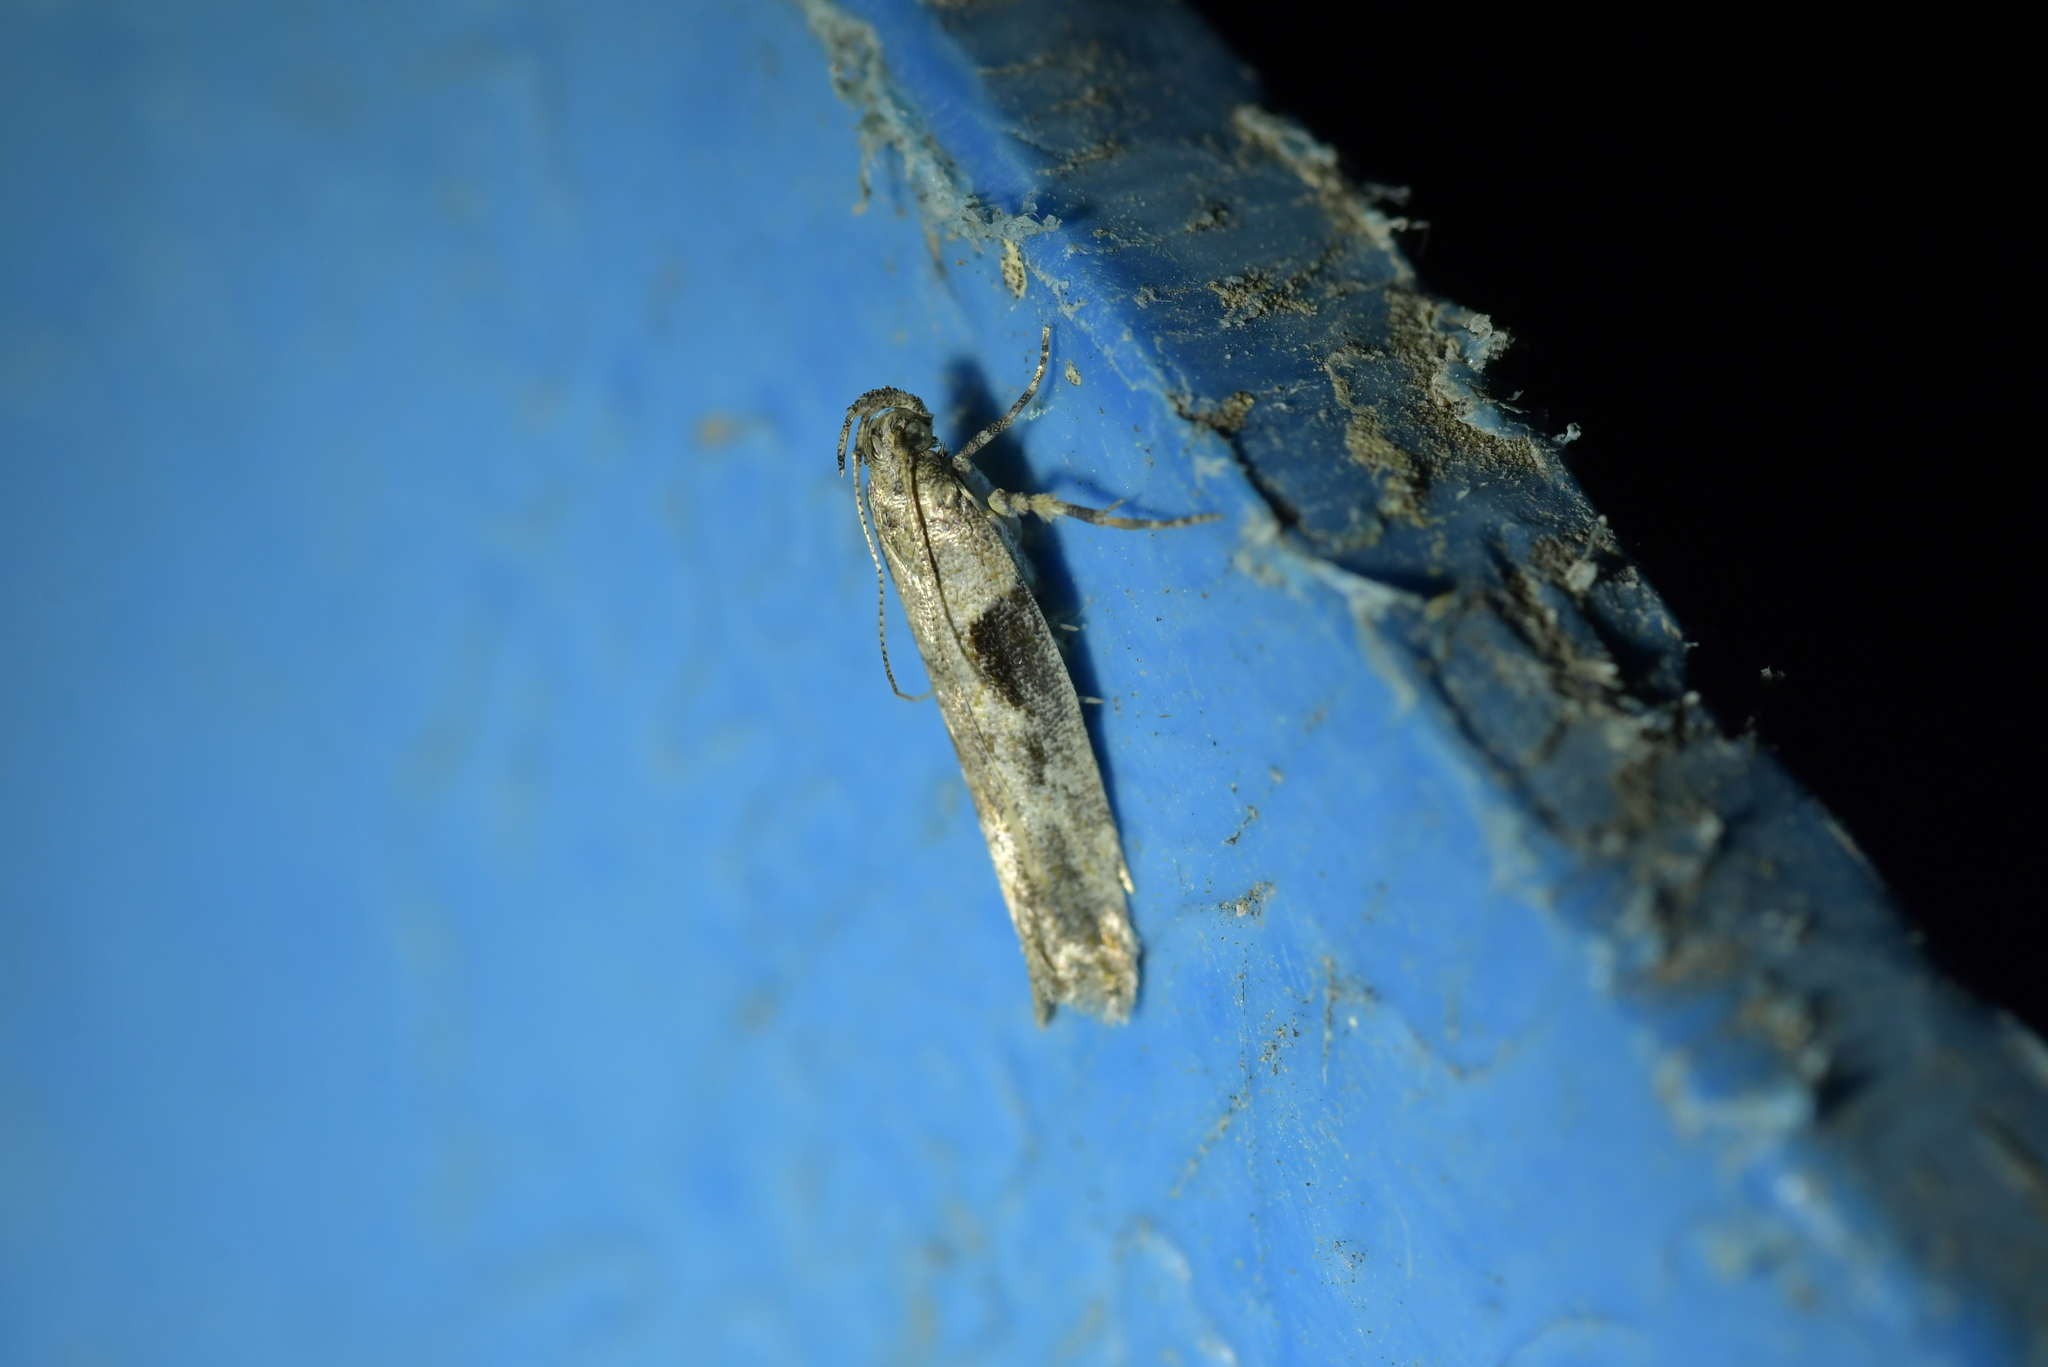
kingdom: Animalia
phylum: Arthropoda
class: Insecta
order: Lepidoptera
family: Gelechiidae
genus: Symmetrischema
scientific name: Symmetrischema tangolias
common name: Moth
